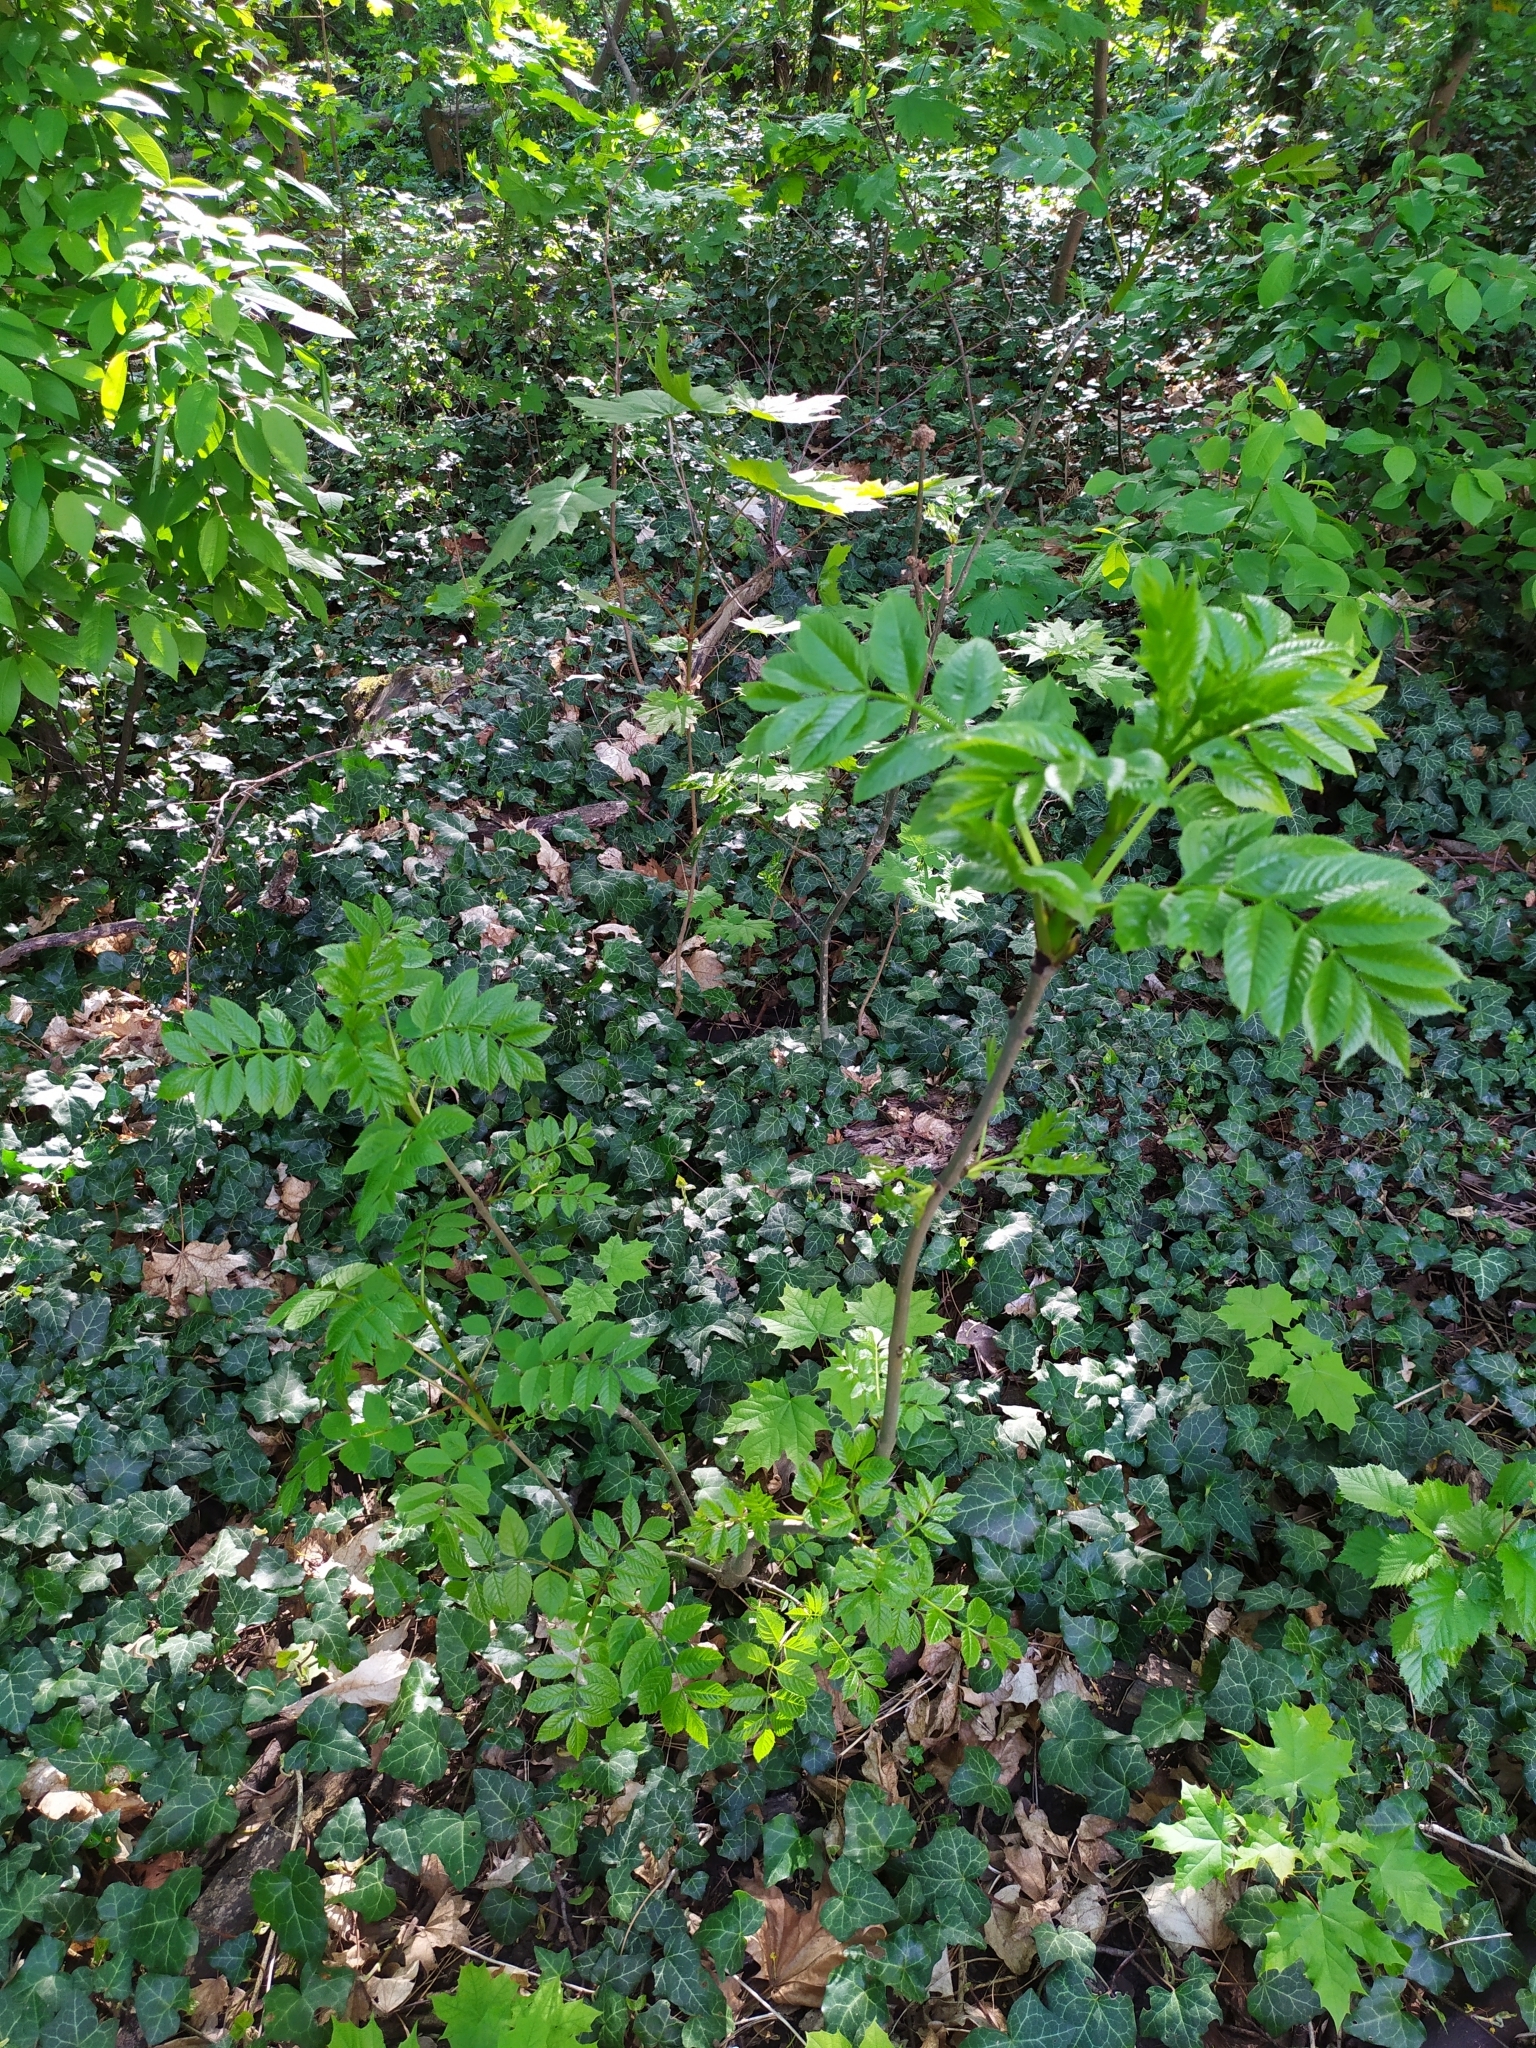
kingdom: Plantae
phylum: Tracheophyta
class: Magnoliopsida
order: Lamiales
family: Oleaceae
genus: Fraxinus
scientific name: Fraxinus excelsior
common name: European ash
